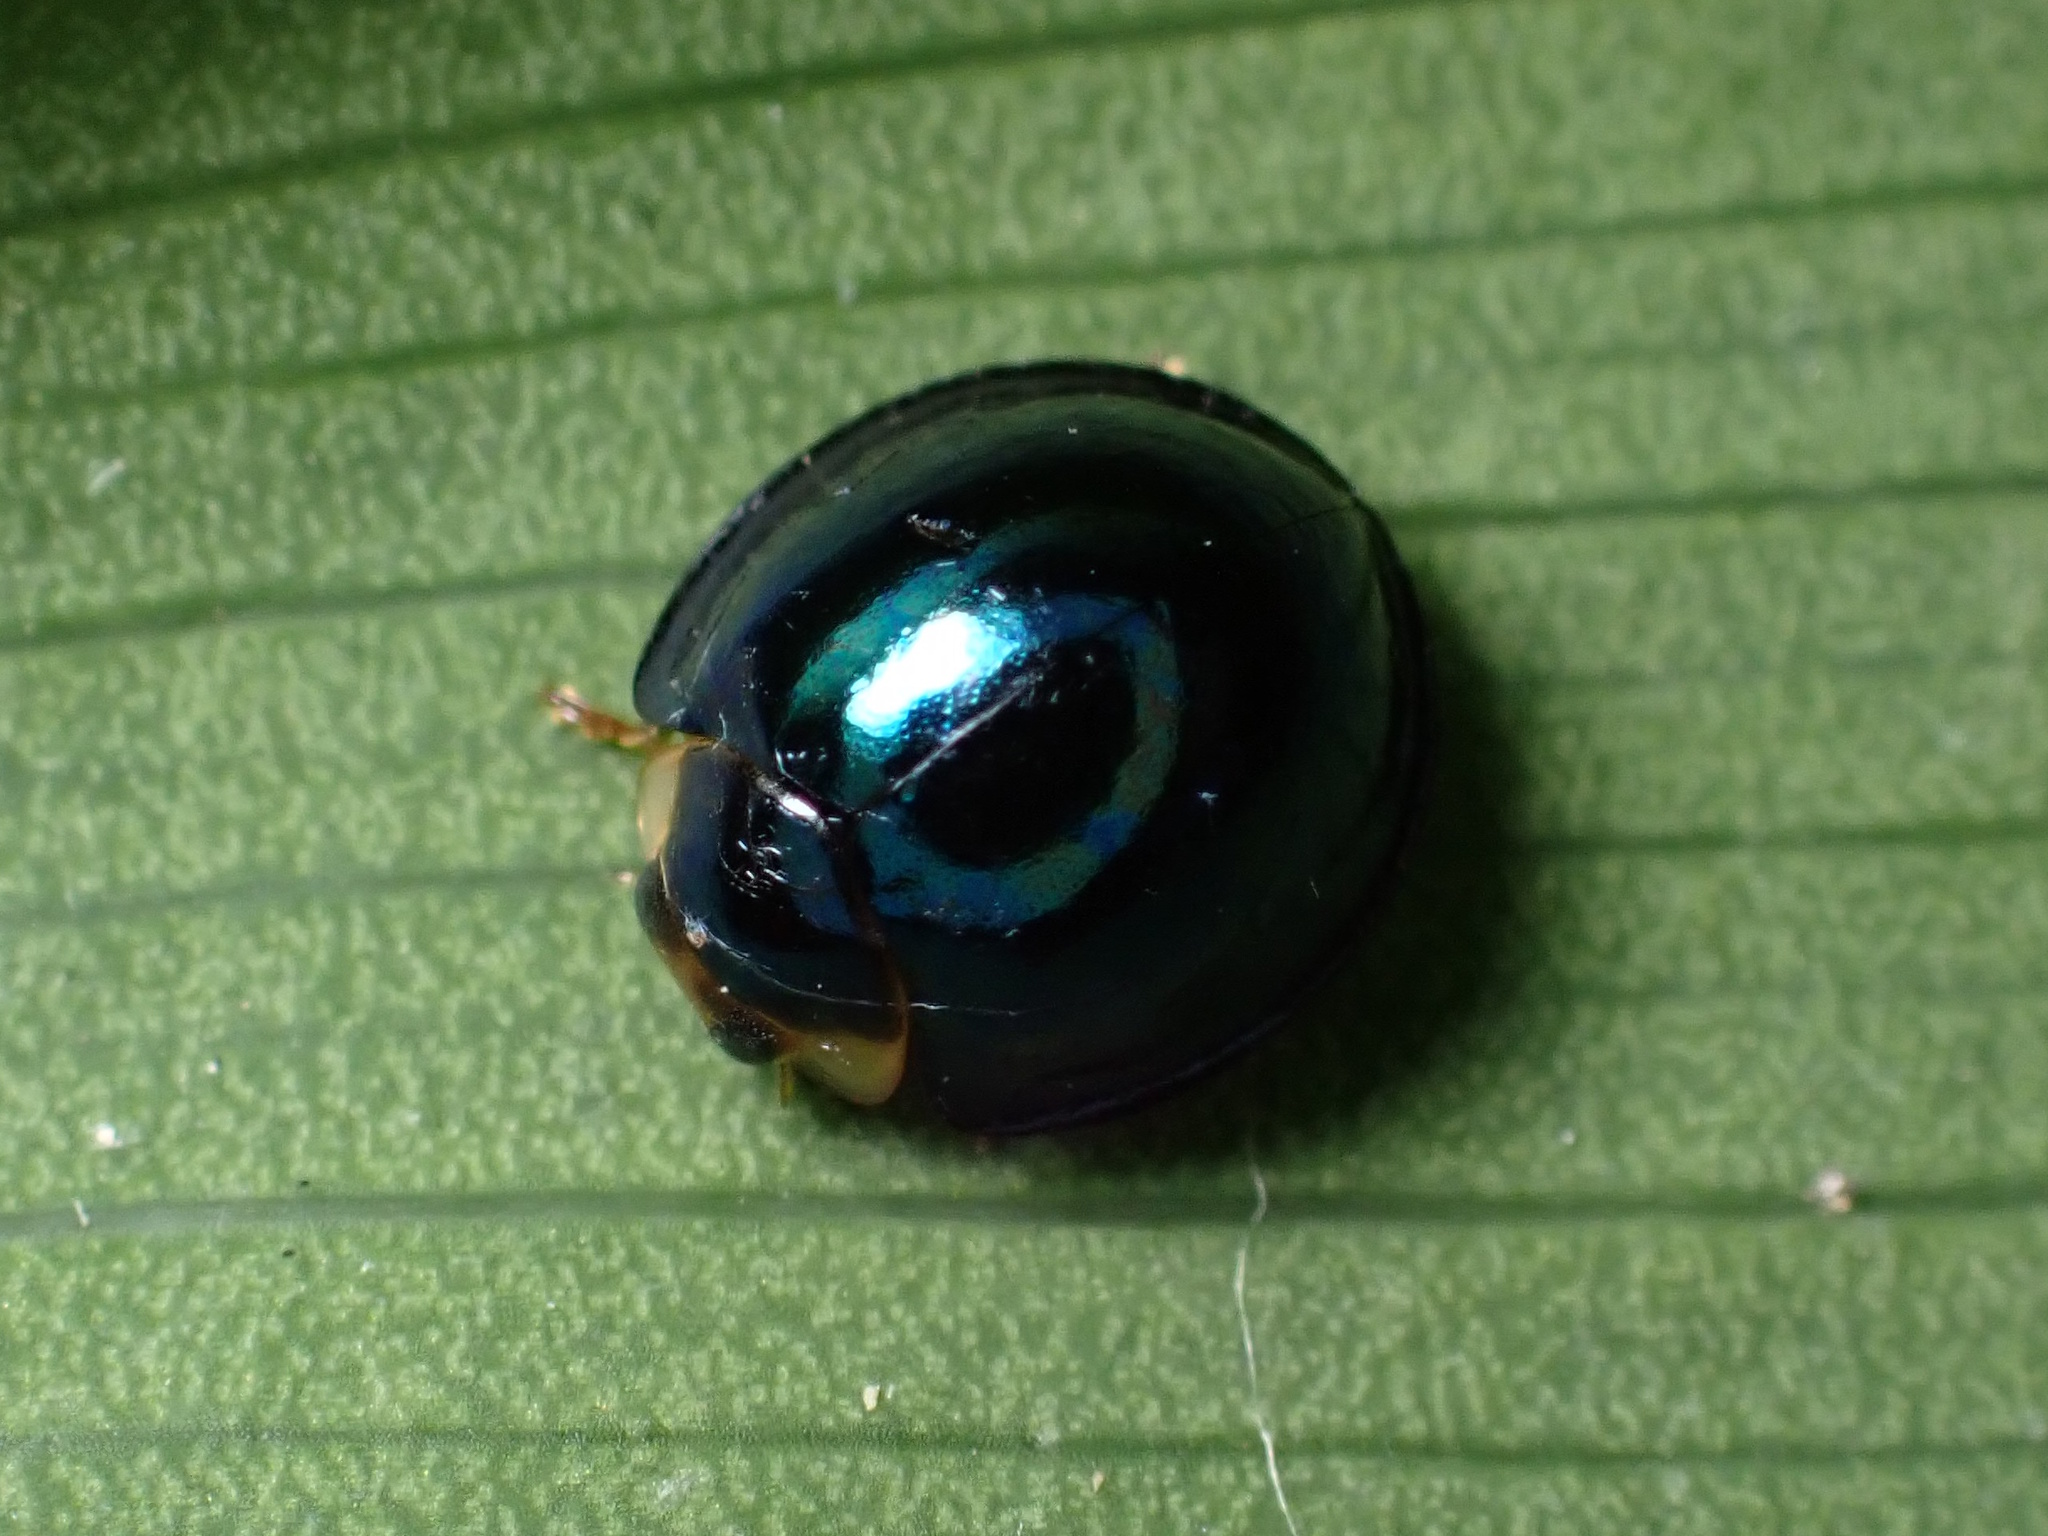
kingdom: Animalia
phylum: Arthropoda
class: Insecta
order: Coleoptera
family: Coccinellidae
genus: Halmus
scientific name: Halmus chalybeus
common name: Steel blue ladybird beetle
